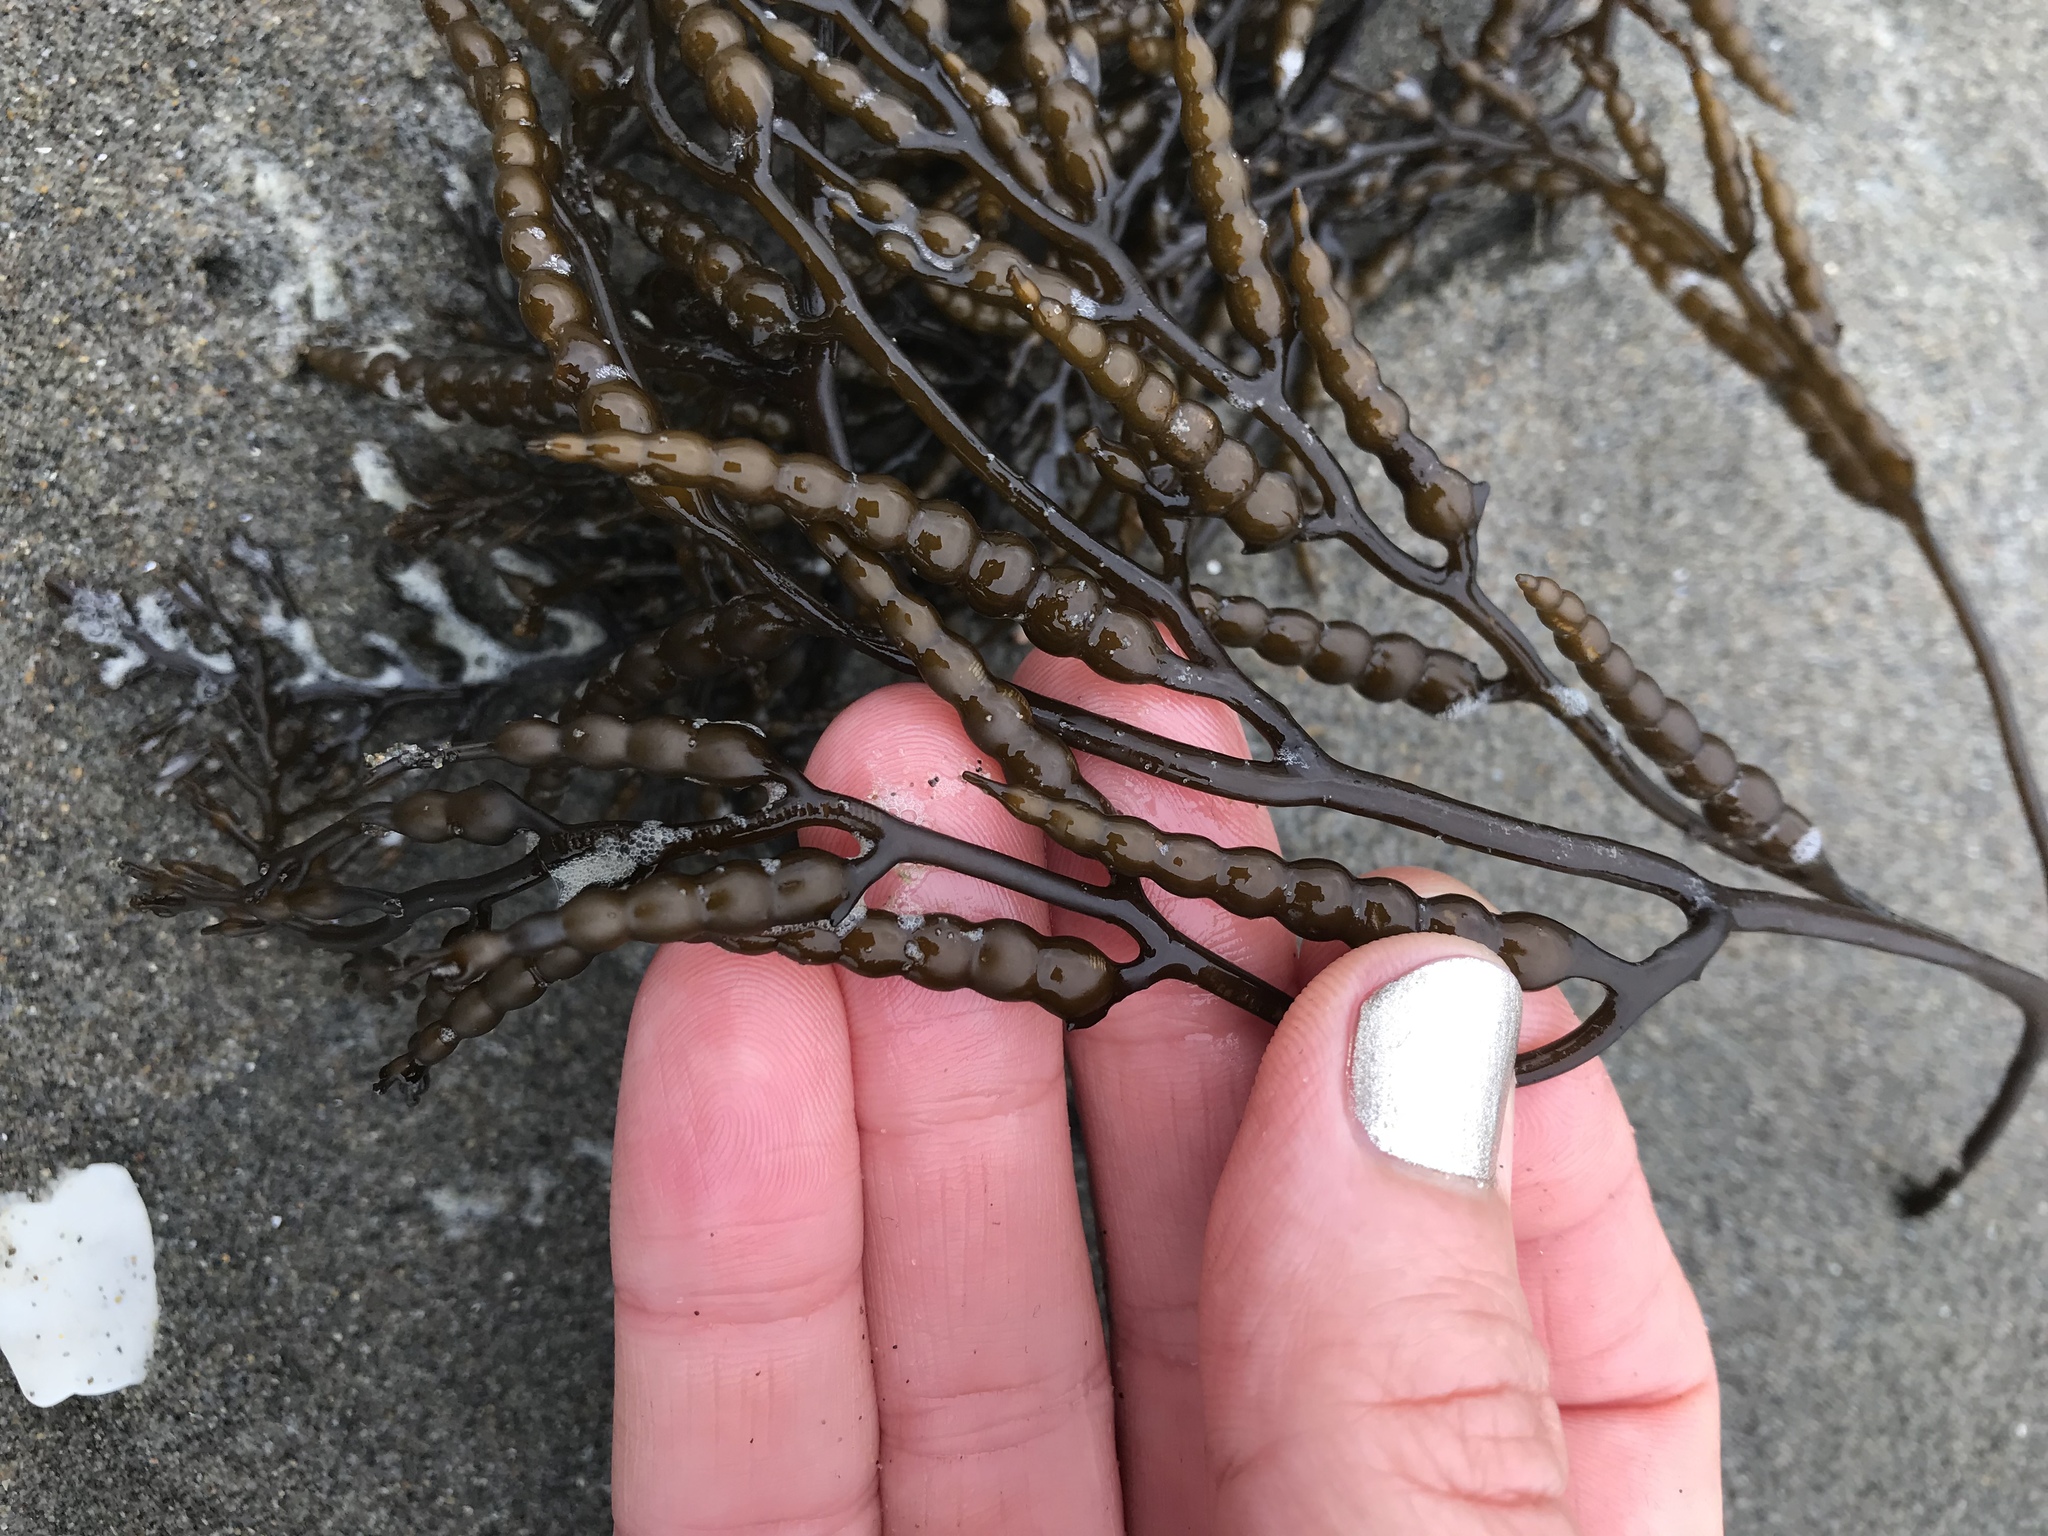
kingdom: Chromista
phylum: Ochrophyta
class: Phaeophyceae
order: Fucales
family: Sargassaceae
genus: Stephanocystis
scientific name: Stephanocystis
